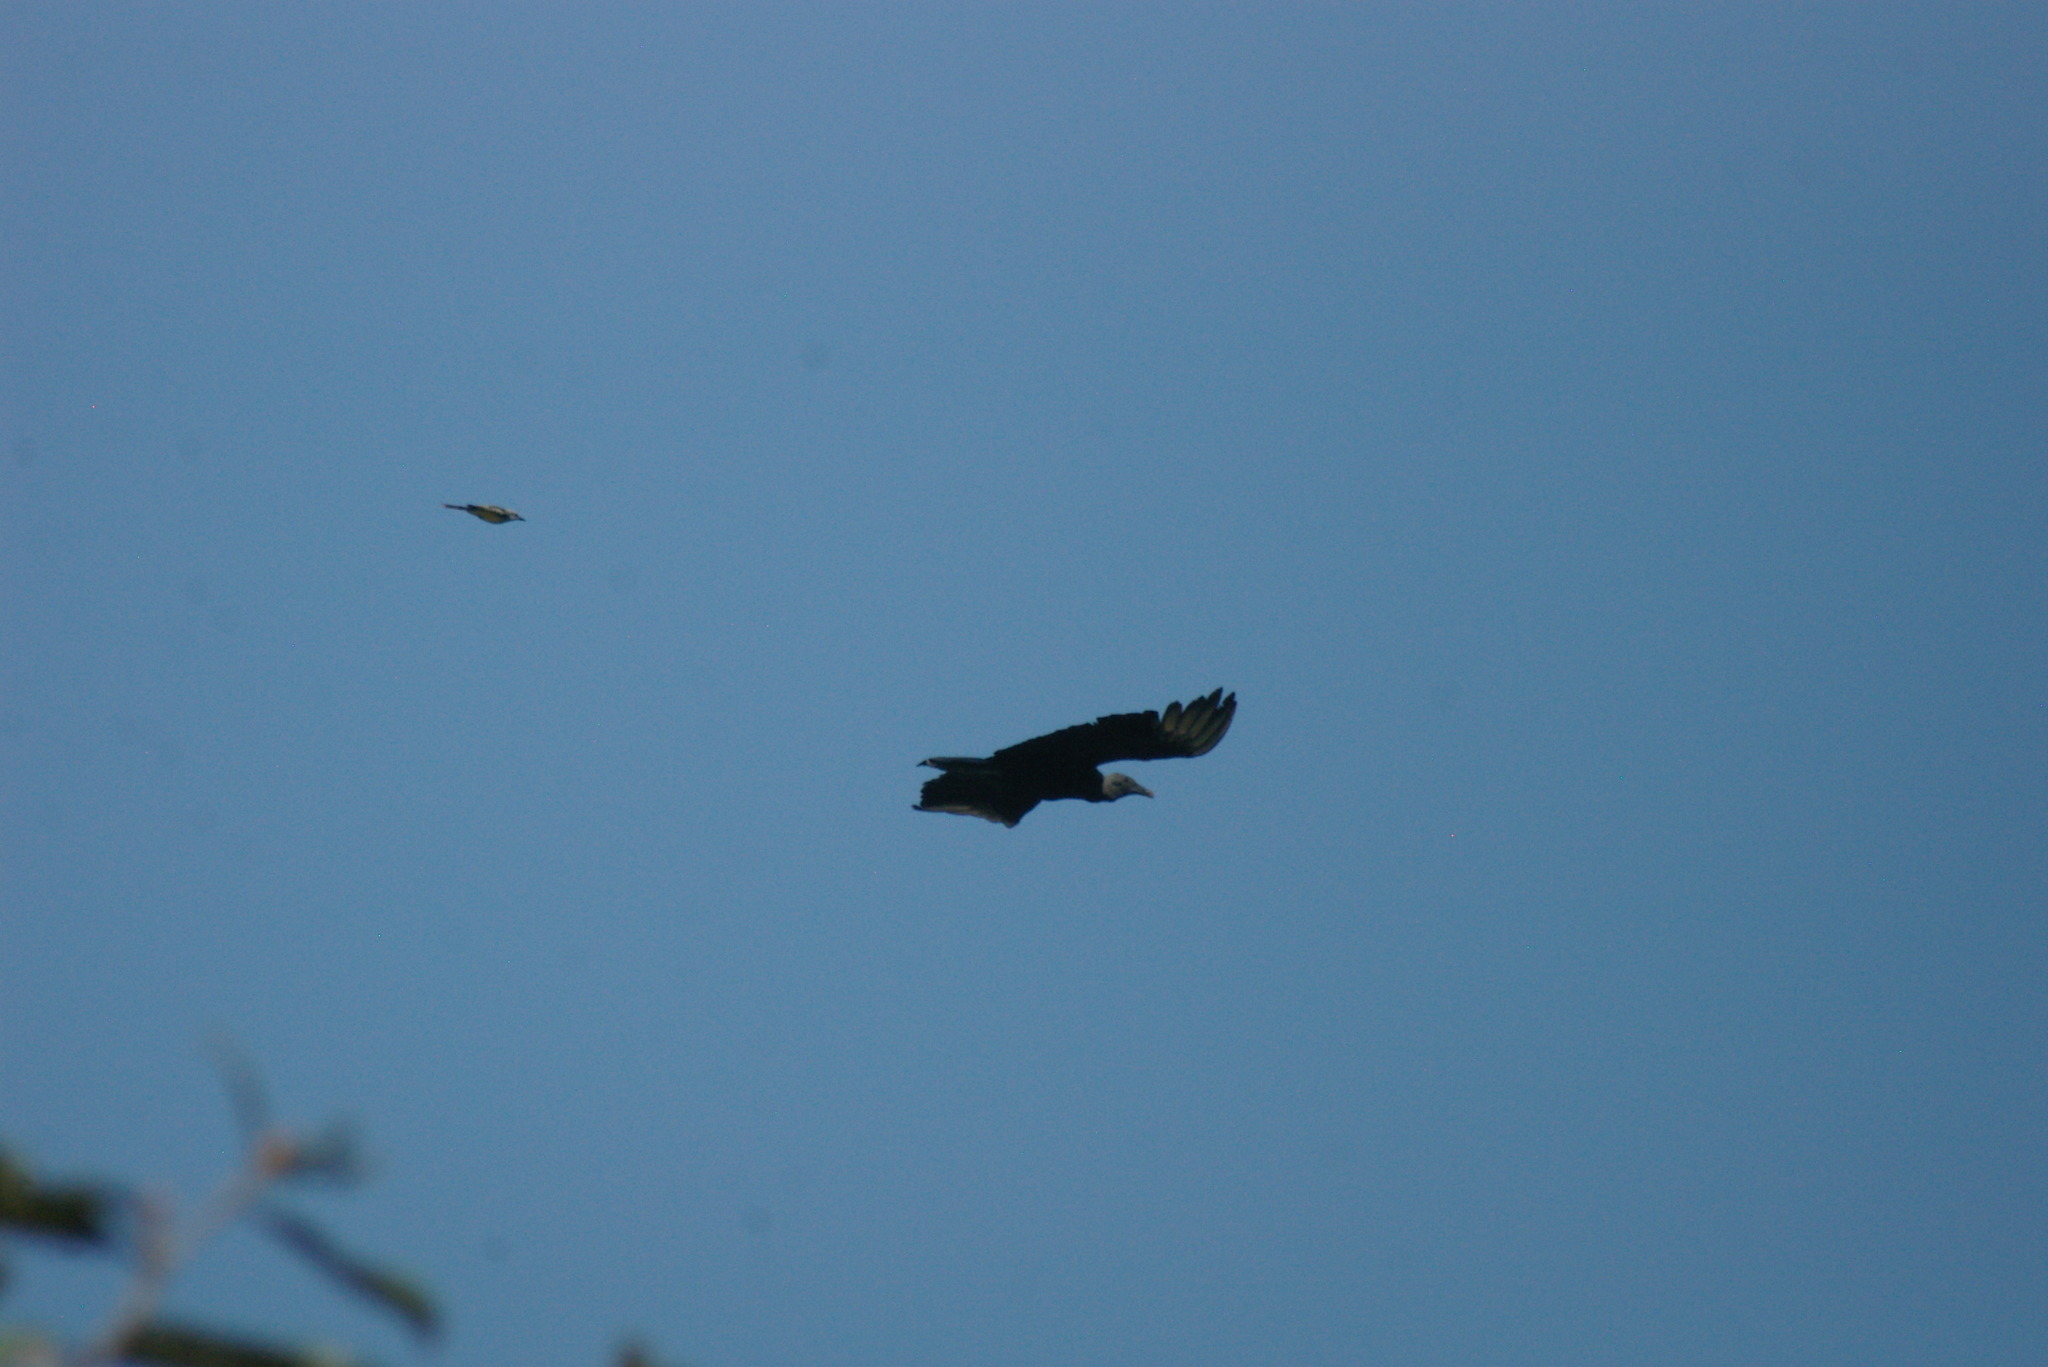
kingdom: Animalia
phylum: Chordata
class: Aves
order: Accipitriformes
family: Cathartidae
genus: Coragyps
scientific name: Coragyps atratus
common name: Black vulture
